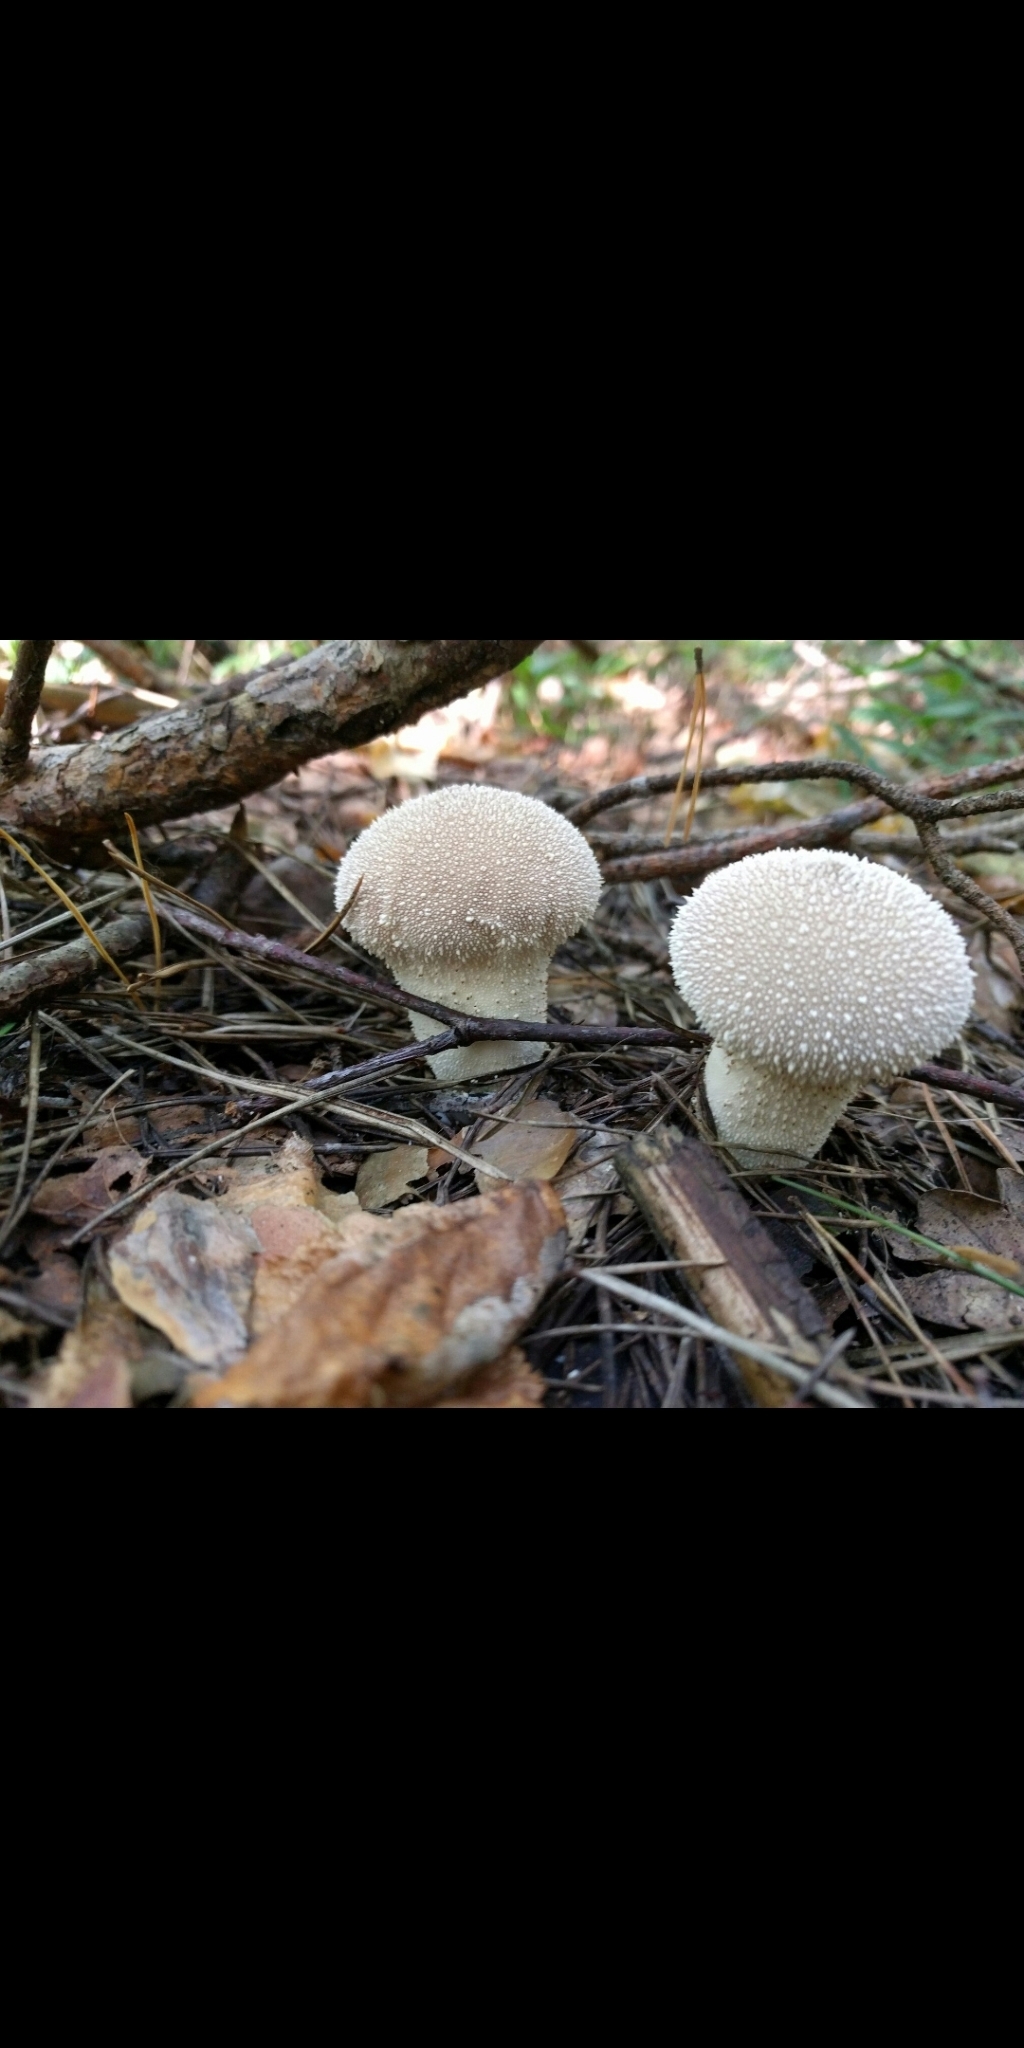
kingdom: Fungi
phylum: Basidiomycota
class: Agaricomycetes
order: Agaricales
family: Lycoperdaceae
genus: Lycoperdon
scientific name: Lycoperdon perlatum
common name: Common puffball
